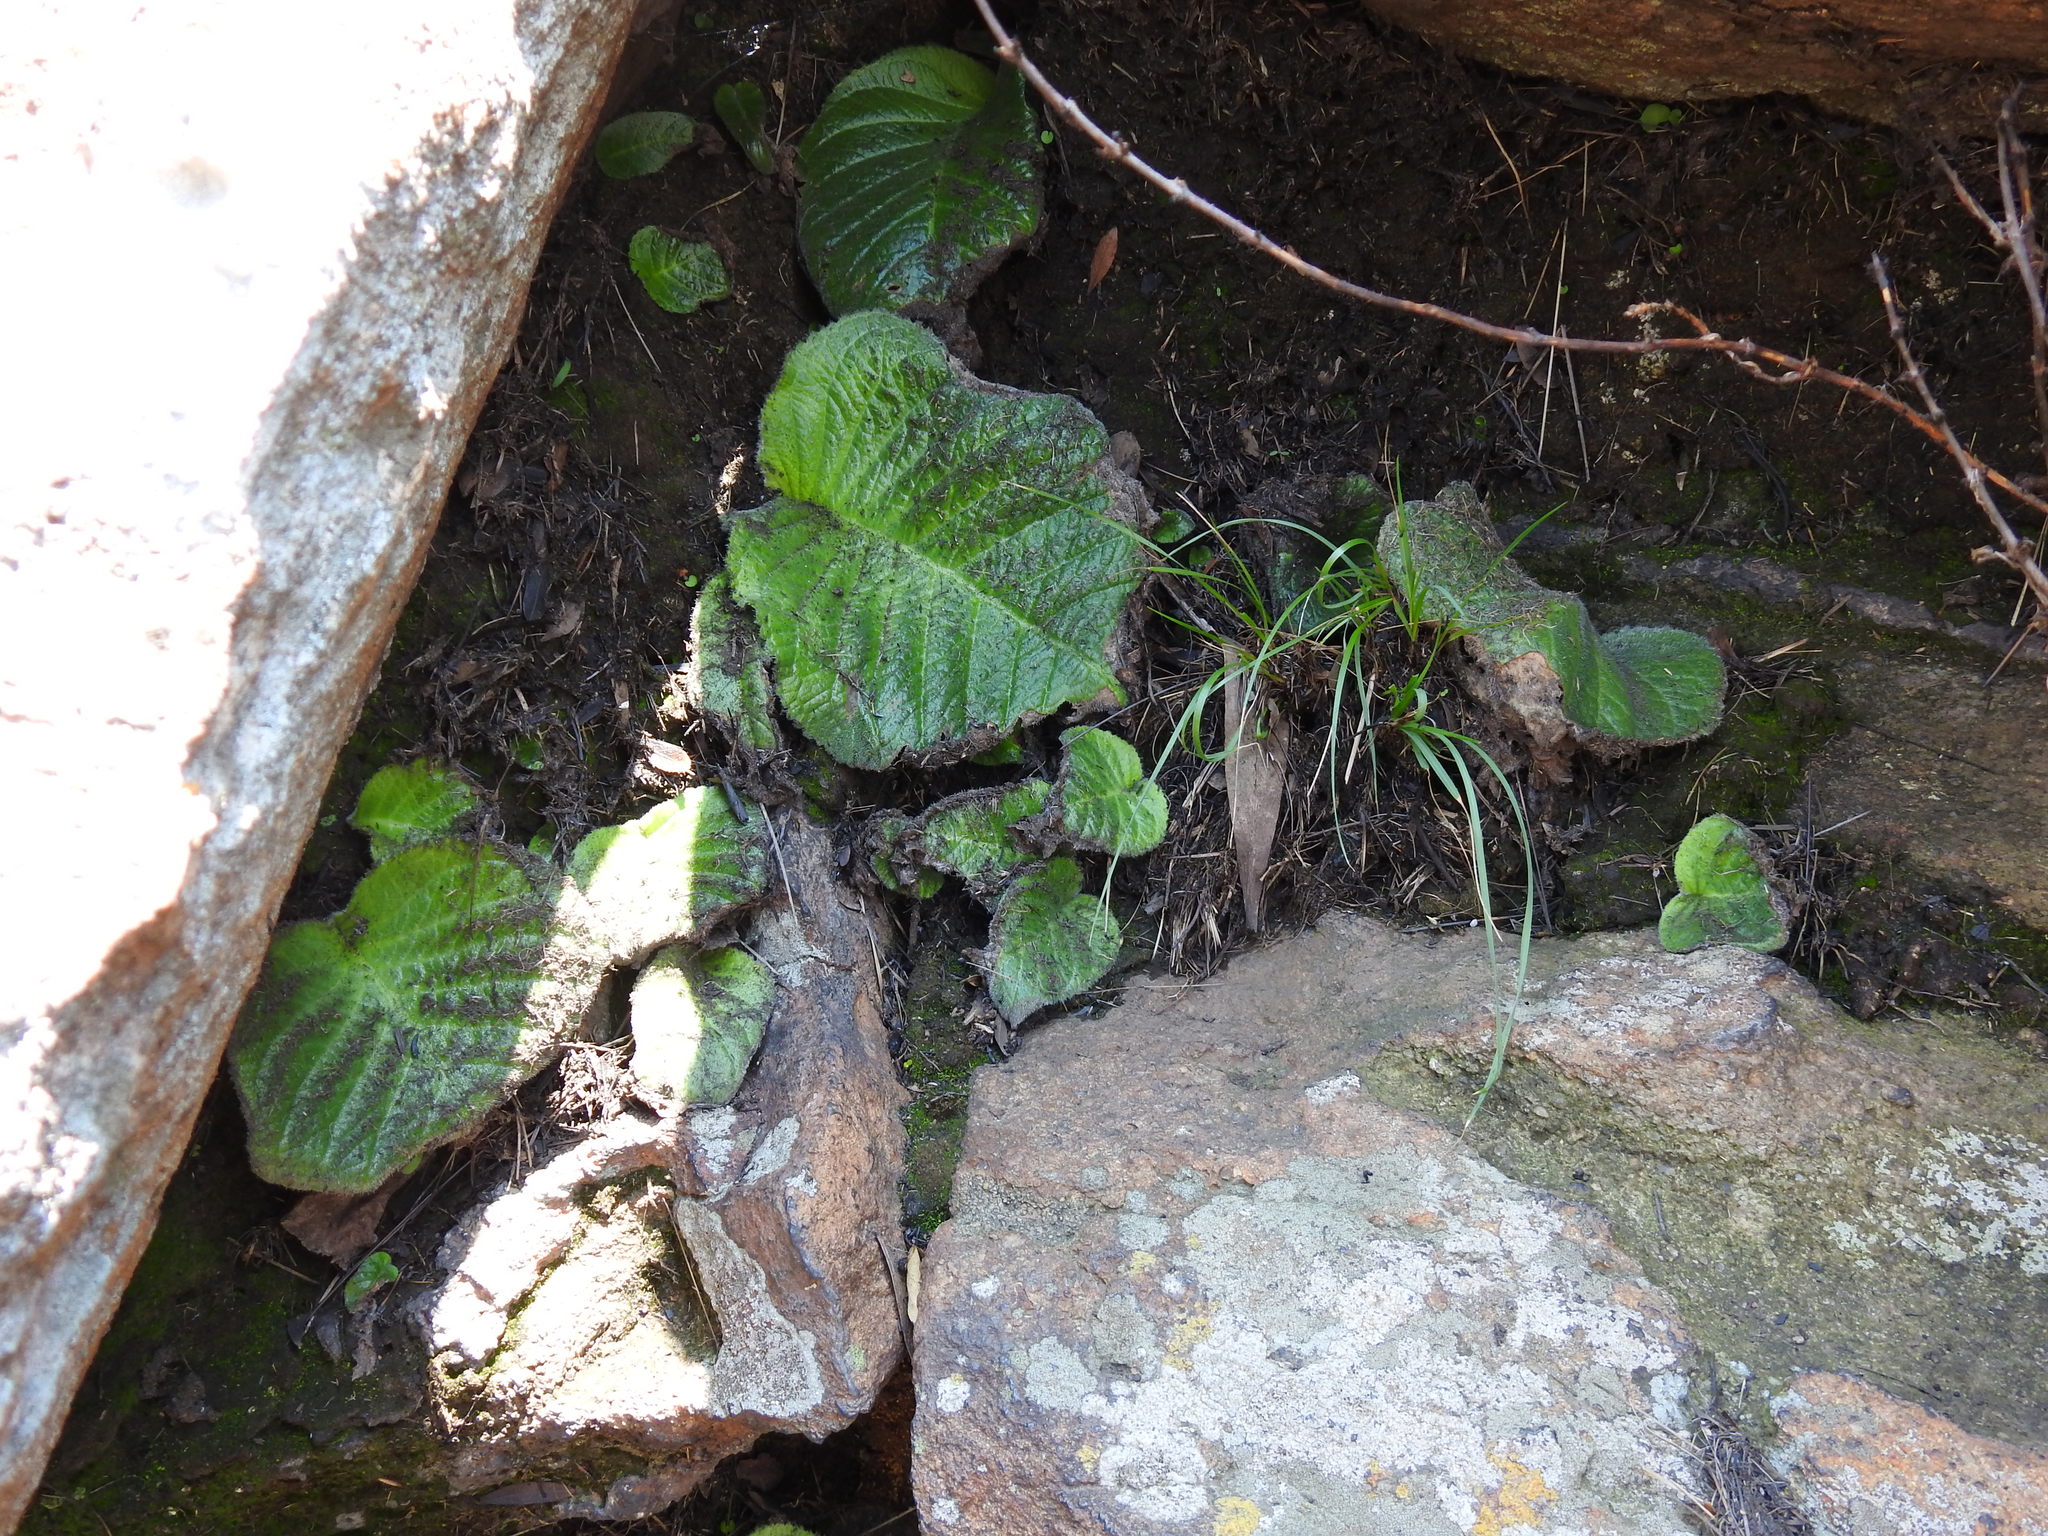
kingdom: Plantae
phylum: Tracheophyta
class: Magnoliopsida
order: Lamiales
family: Gesneriaceae
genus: Streptocarpus
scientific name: Streptocarpus vandeleurii
